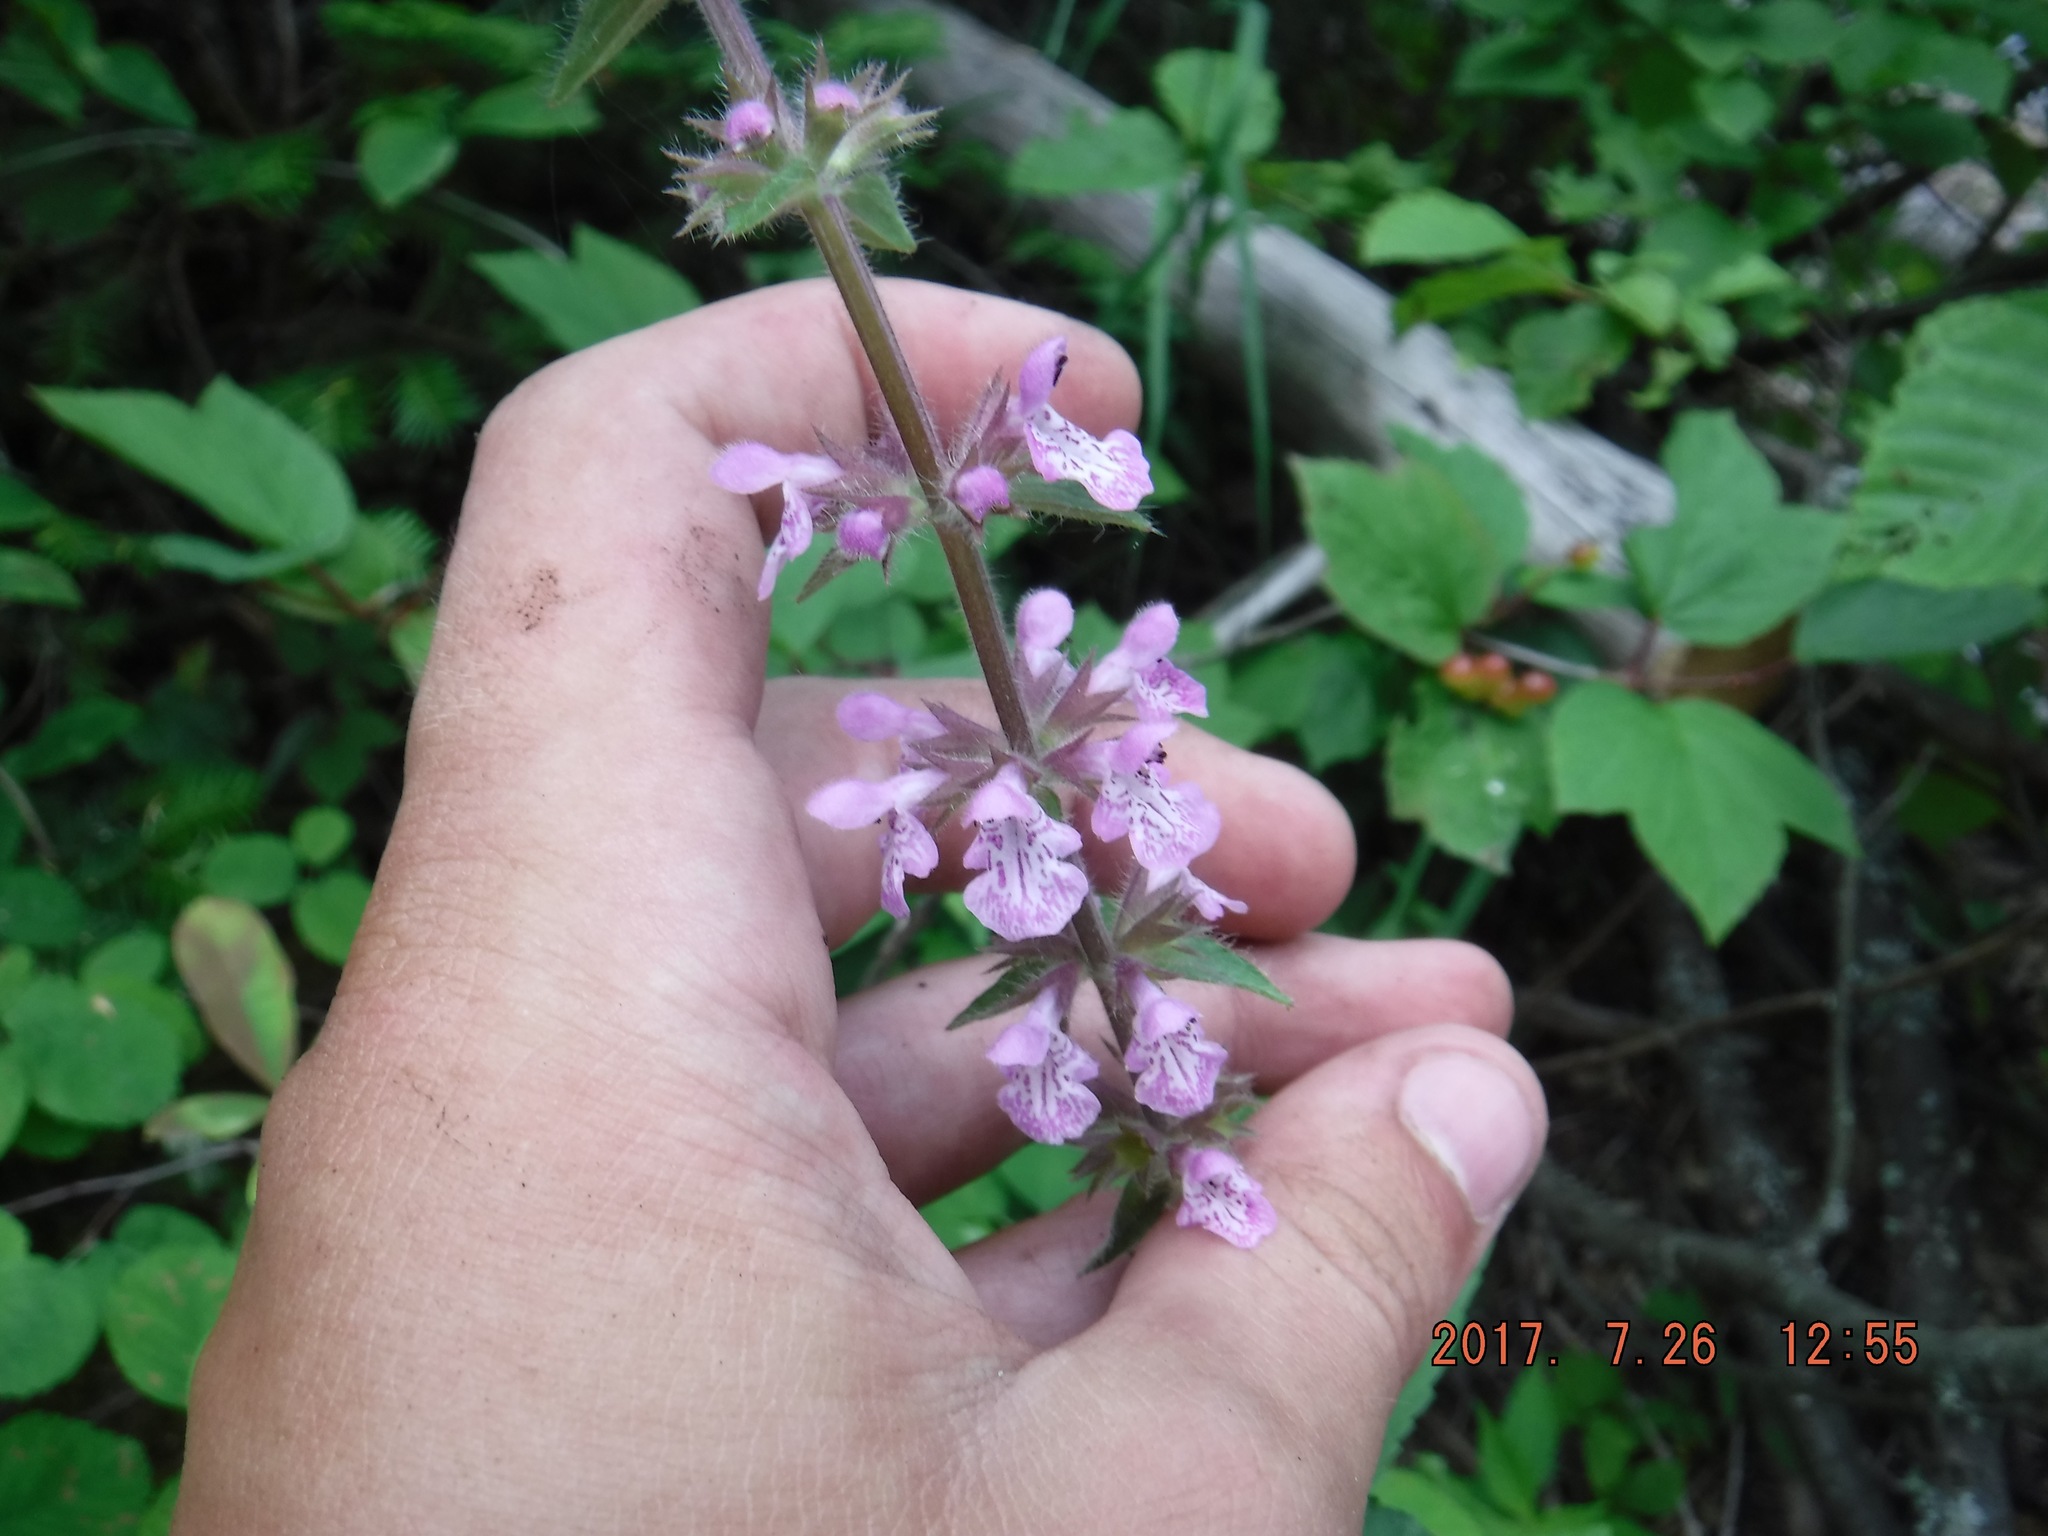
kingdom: Plantae
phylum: Tracheophyta
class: Magnoliopsida
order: Lamiales
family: Lamiaceae
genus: Stachys
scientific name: Stachys hispida
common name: Hispid hedge-nettle
